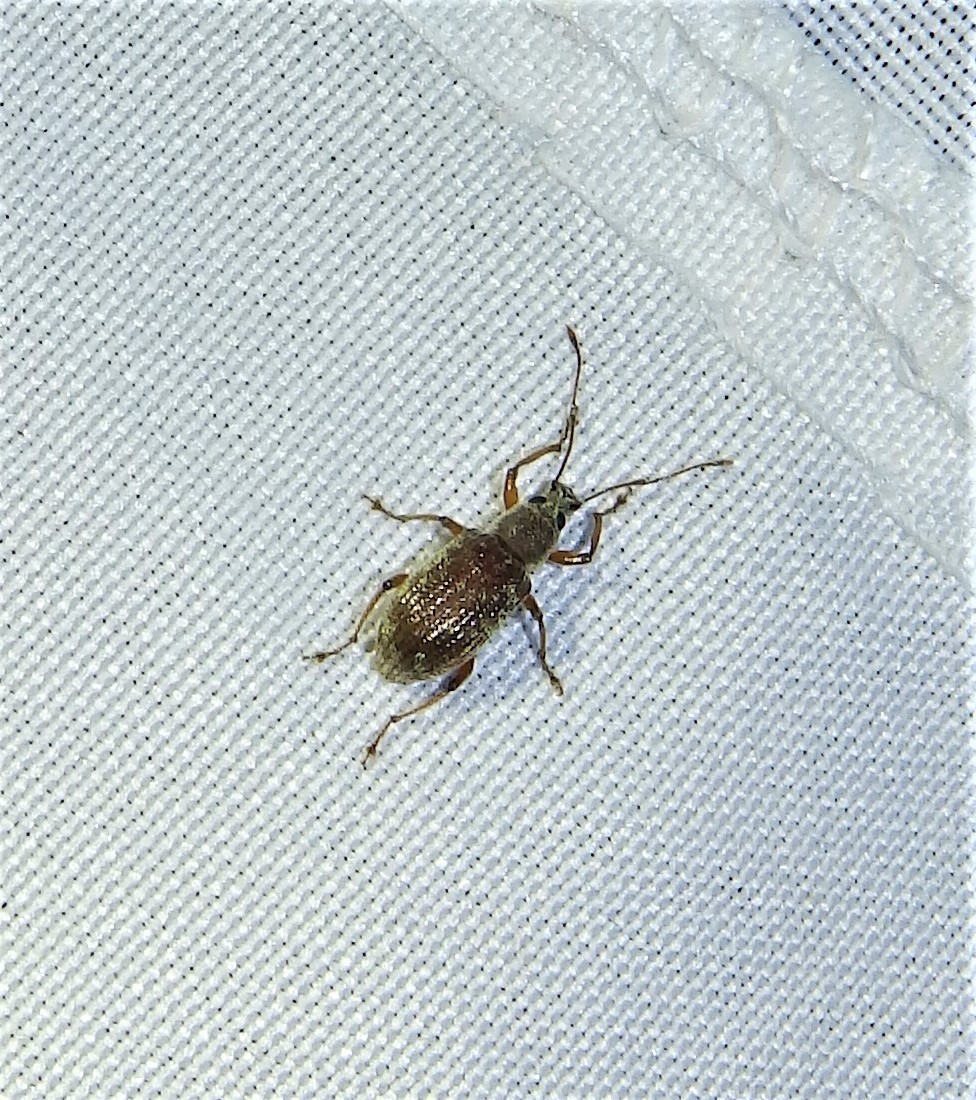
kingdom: Animalia
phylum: Arthropoda
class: Insecta
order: Coleoptera
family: Curculionidae
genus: Cyrtepistomus
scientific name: Cyrtepistomus castaneus
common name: Weevil
